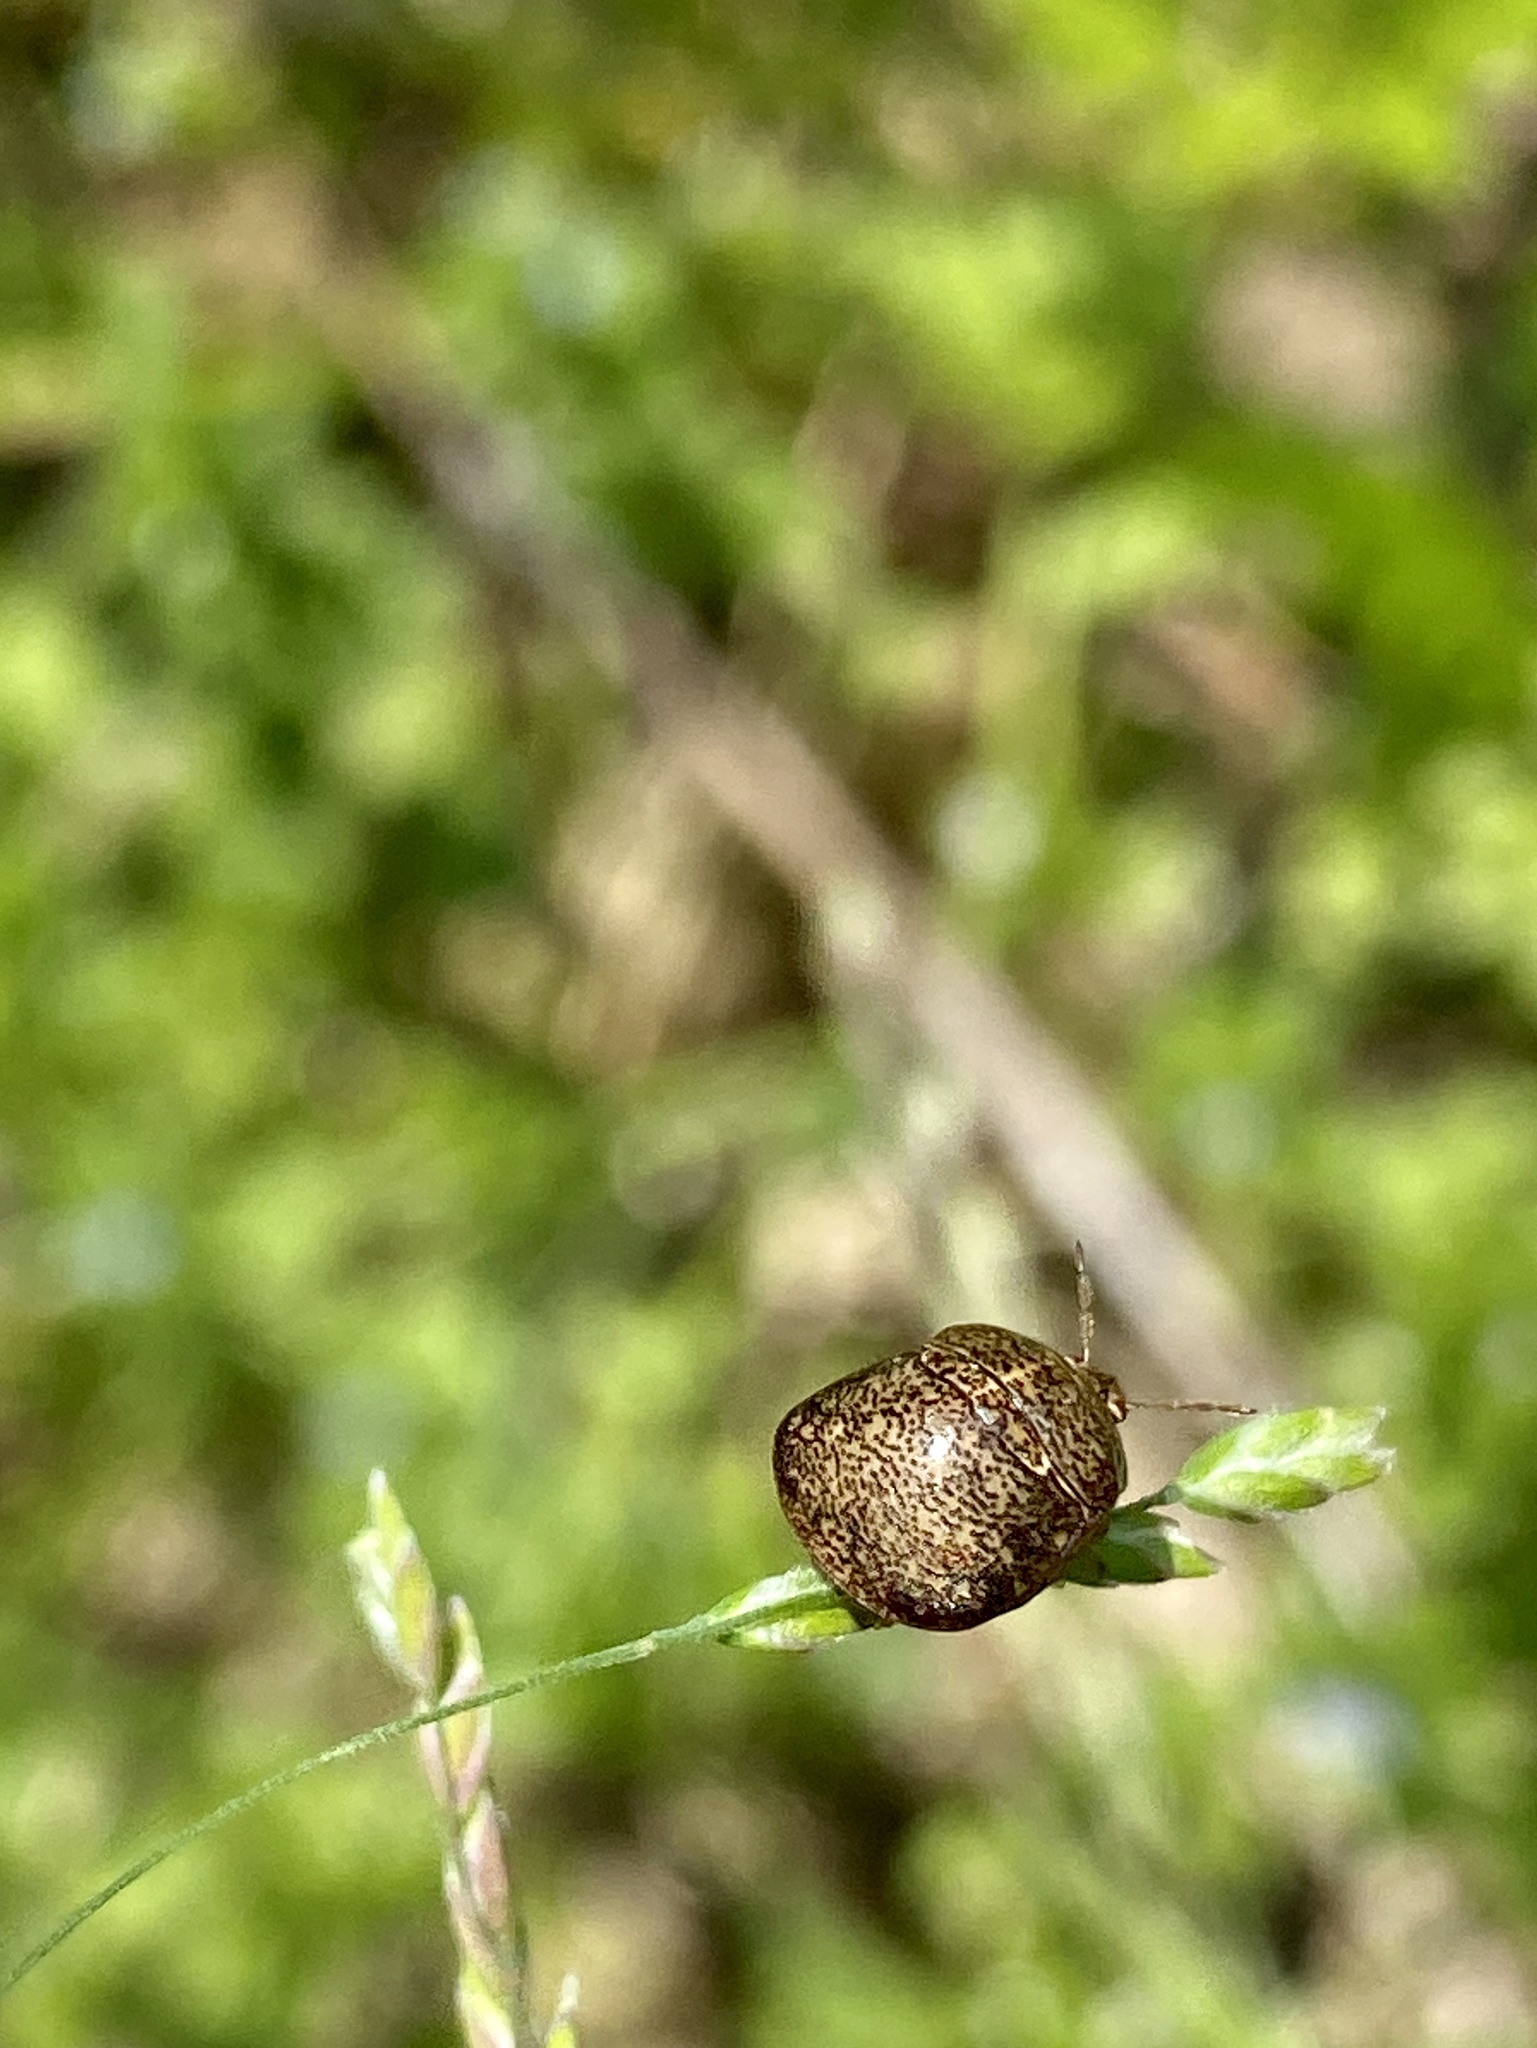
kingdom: Animalia
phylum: Arthropoda
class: Insecta
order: Hemiptera
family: Plataspidae
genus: Megacopta
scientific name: Megacopta punctatissima
